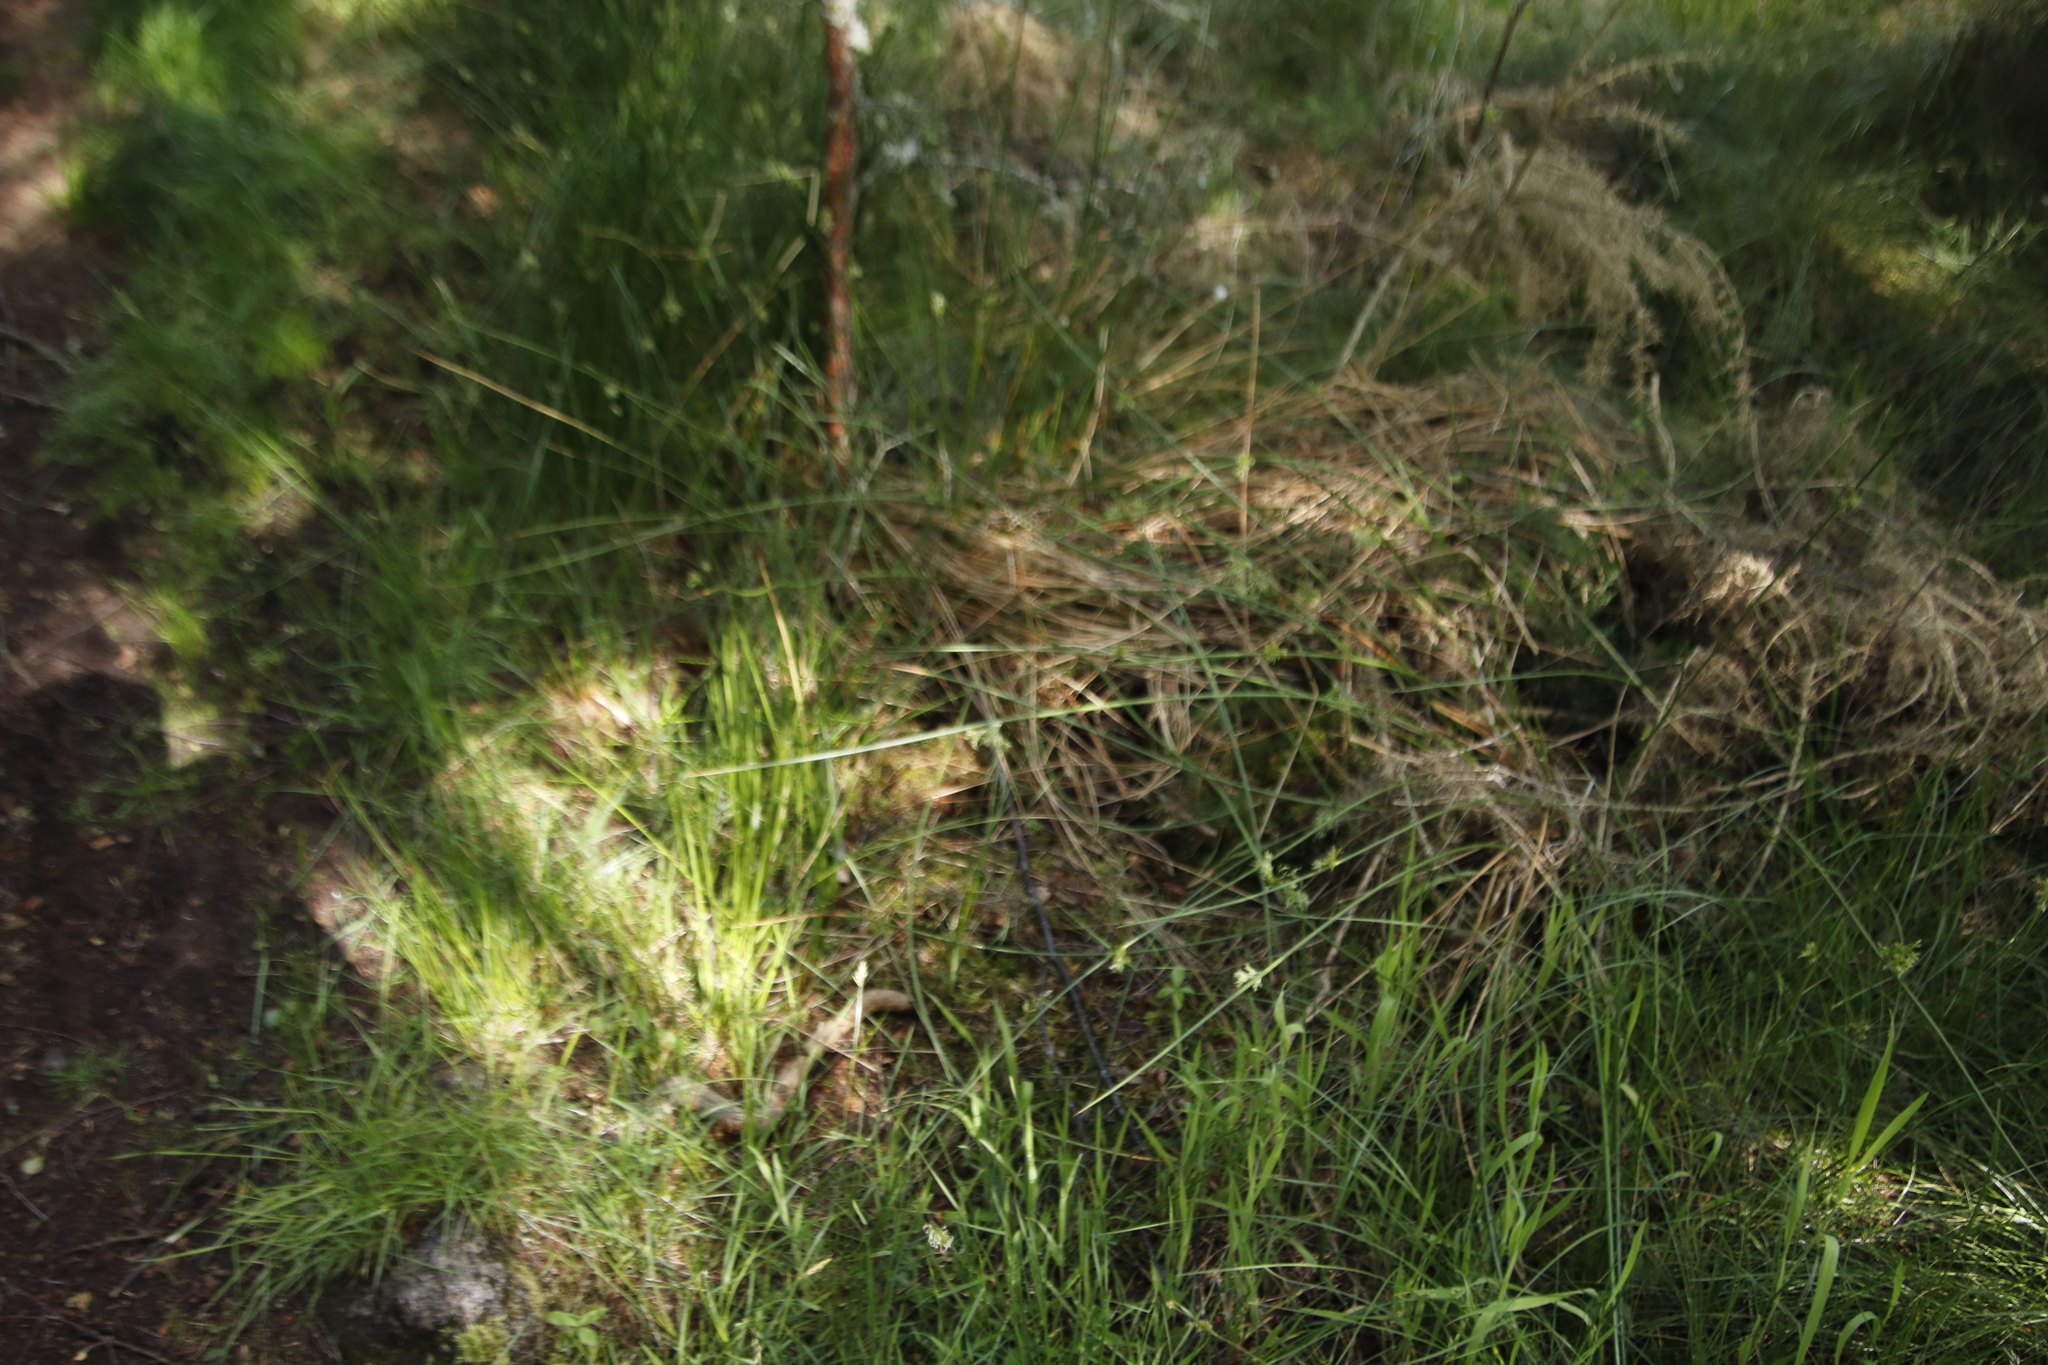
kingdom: Plantae
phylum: Tracheophyta
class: Liliopsida
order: Poales
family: Juncaceae
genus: Juncus
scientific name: Juncus inflexus
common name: Hard rush
